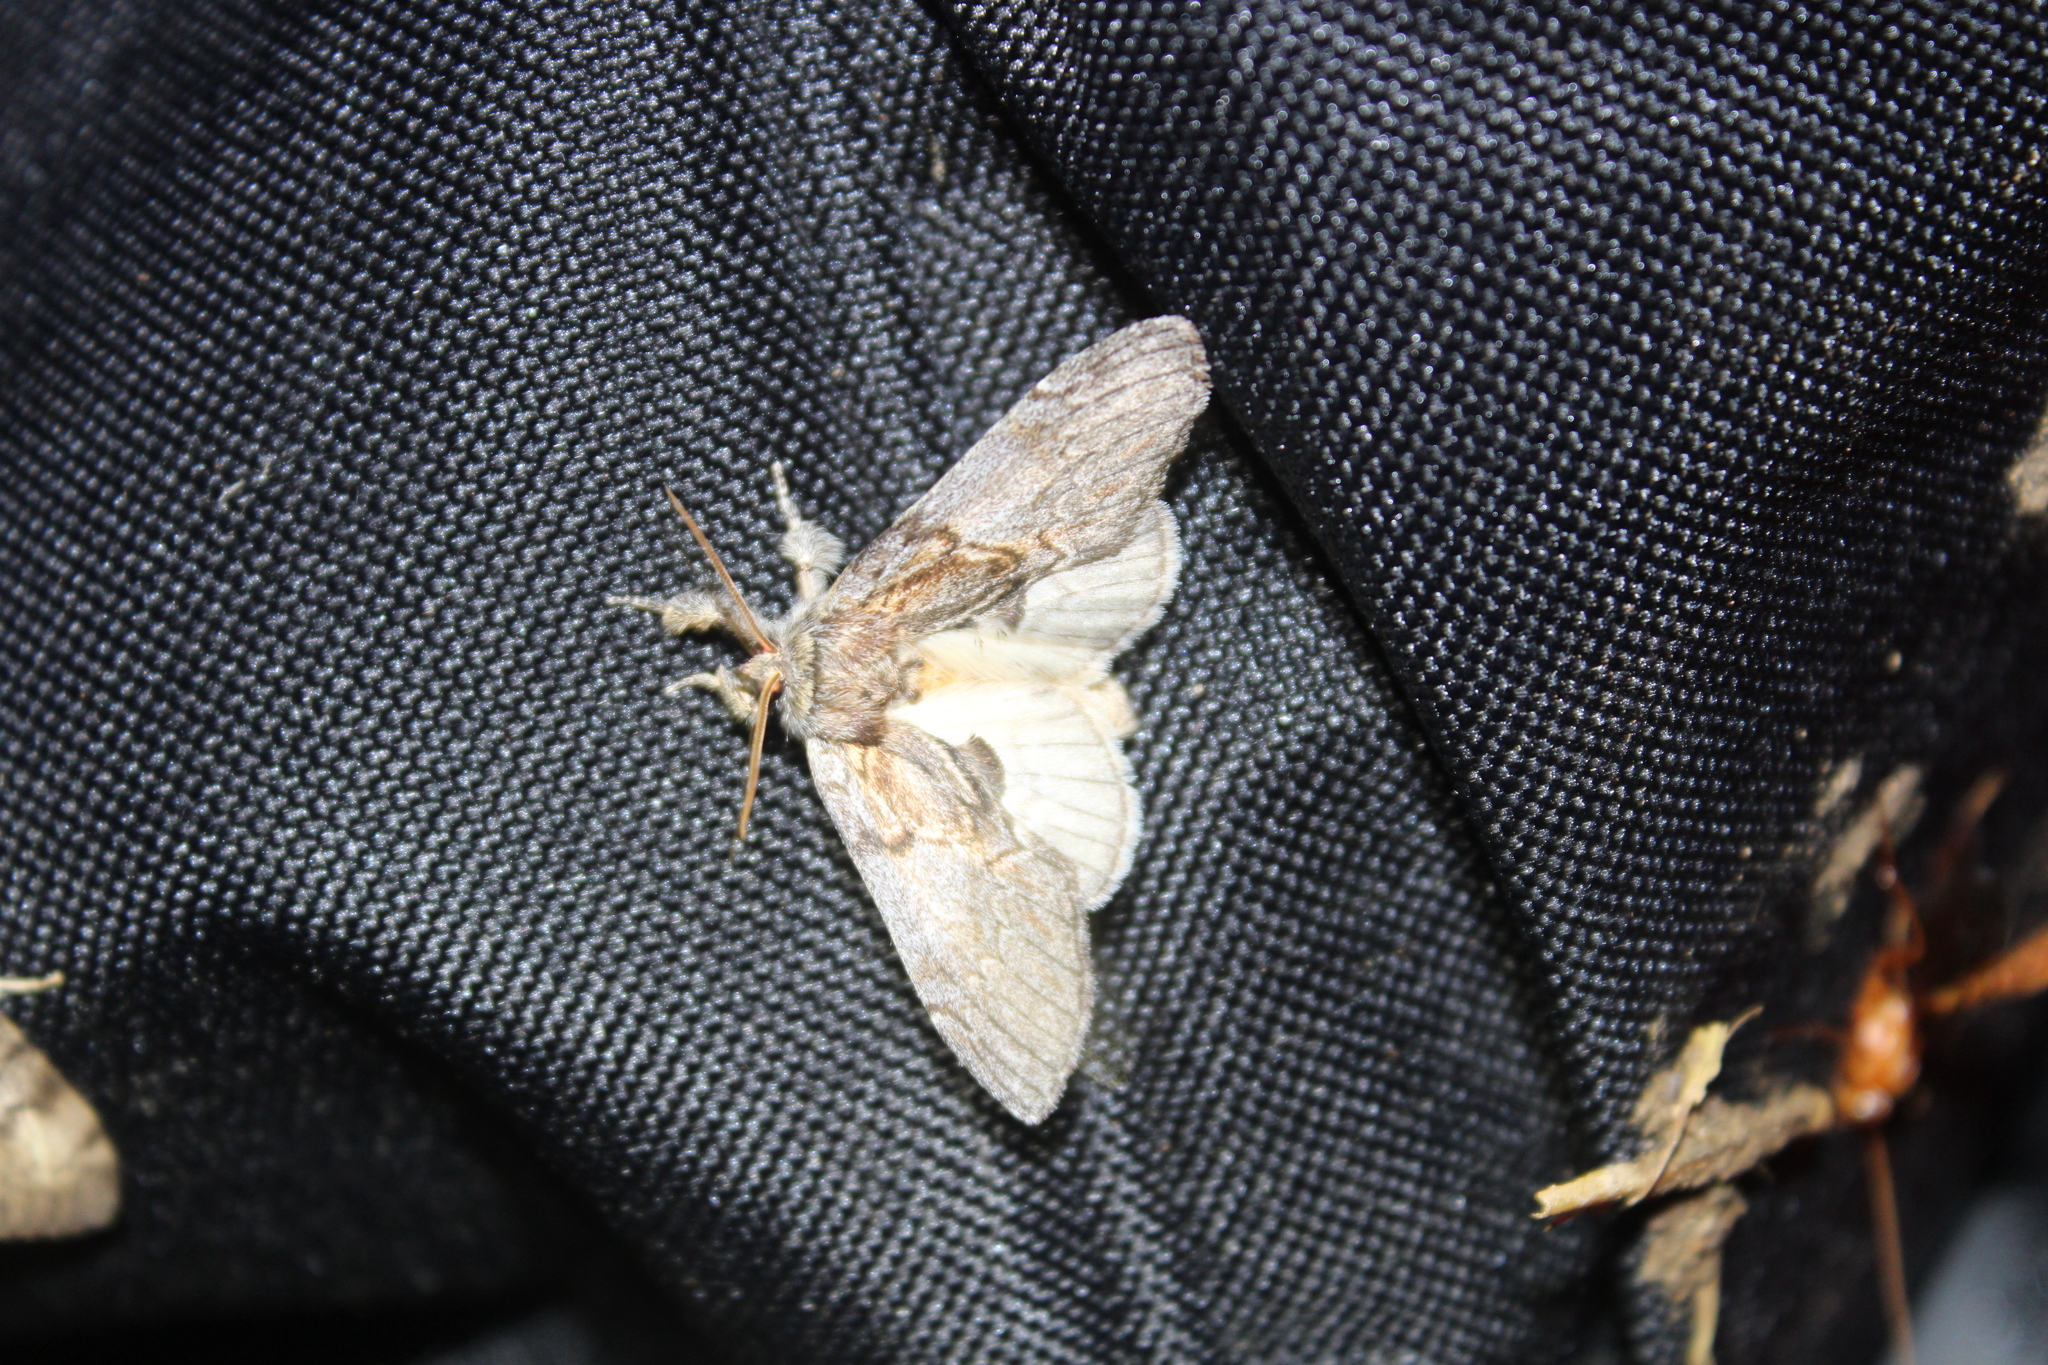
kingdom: Animalia
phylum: Arthropoda
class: Insecta
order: Lepidoptera
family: Notodontidae
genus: Peridea
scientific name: Peridea basitriens
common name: Oval-based prominent
